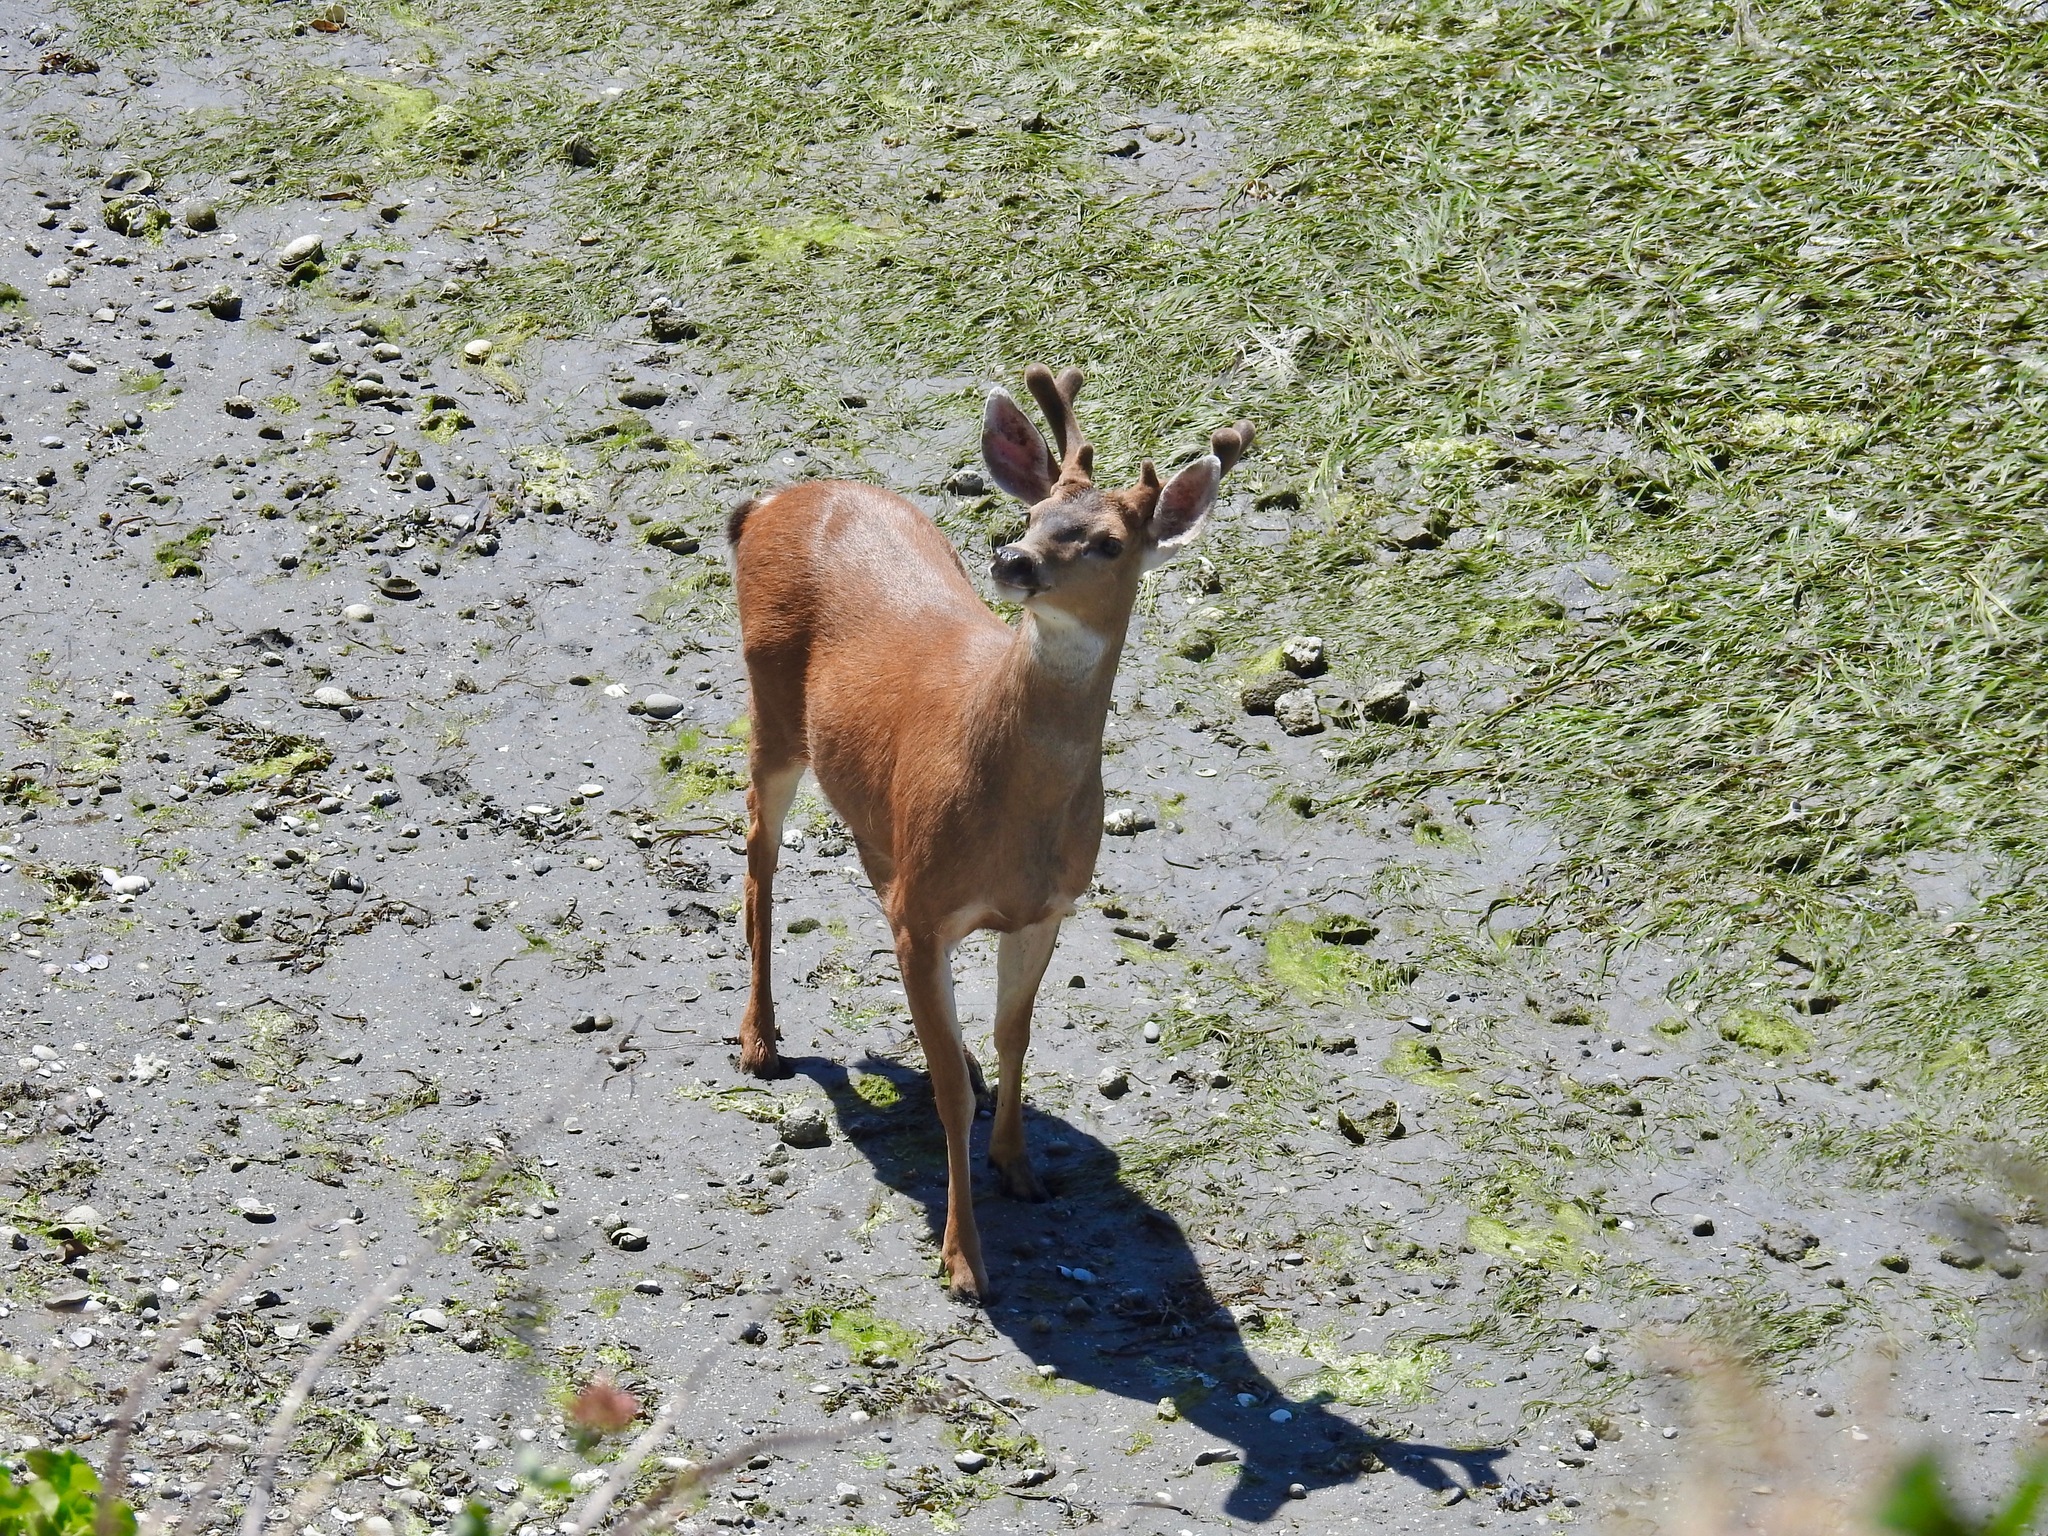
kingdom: Animalia
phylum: Chordata
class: Mammalia
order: Artiodactyla
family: Cervidae
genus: Odocoileus
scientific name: Odocoileus hemionus
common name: Mule deer
